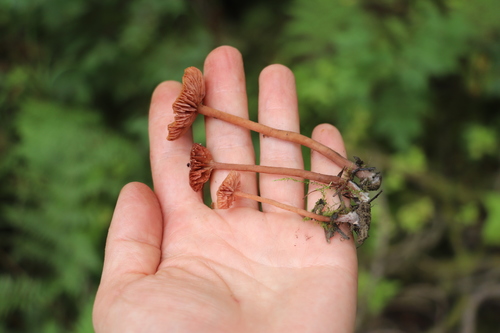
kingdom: Fungi
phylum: Basidiomycota
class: Agaricomycetes
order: Agaricales
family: Hydnangiaceae
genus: Laccaria
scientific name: Laccaria laccata
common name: Deceiver
